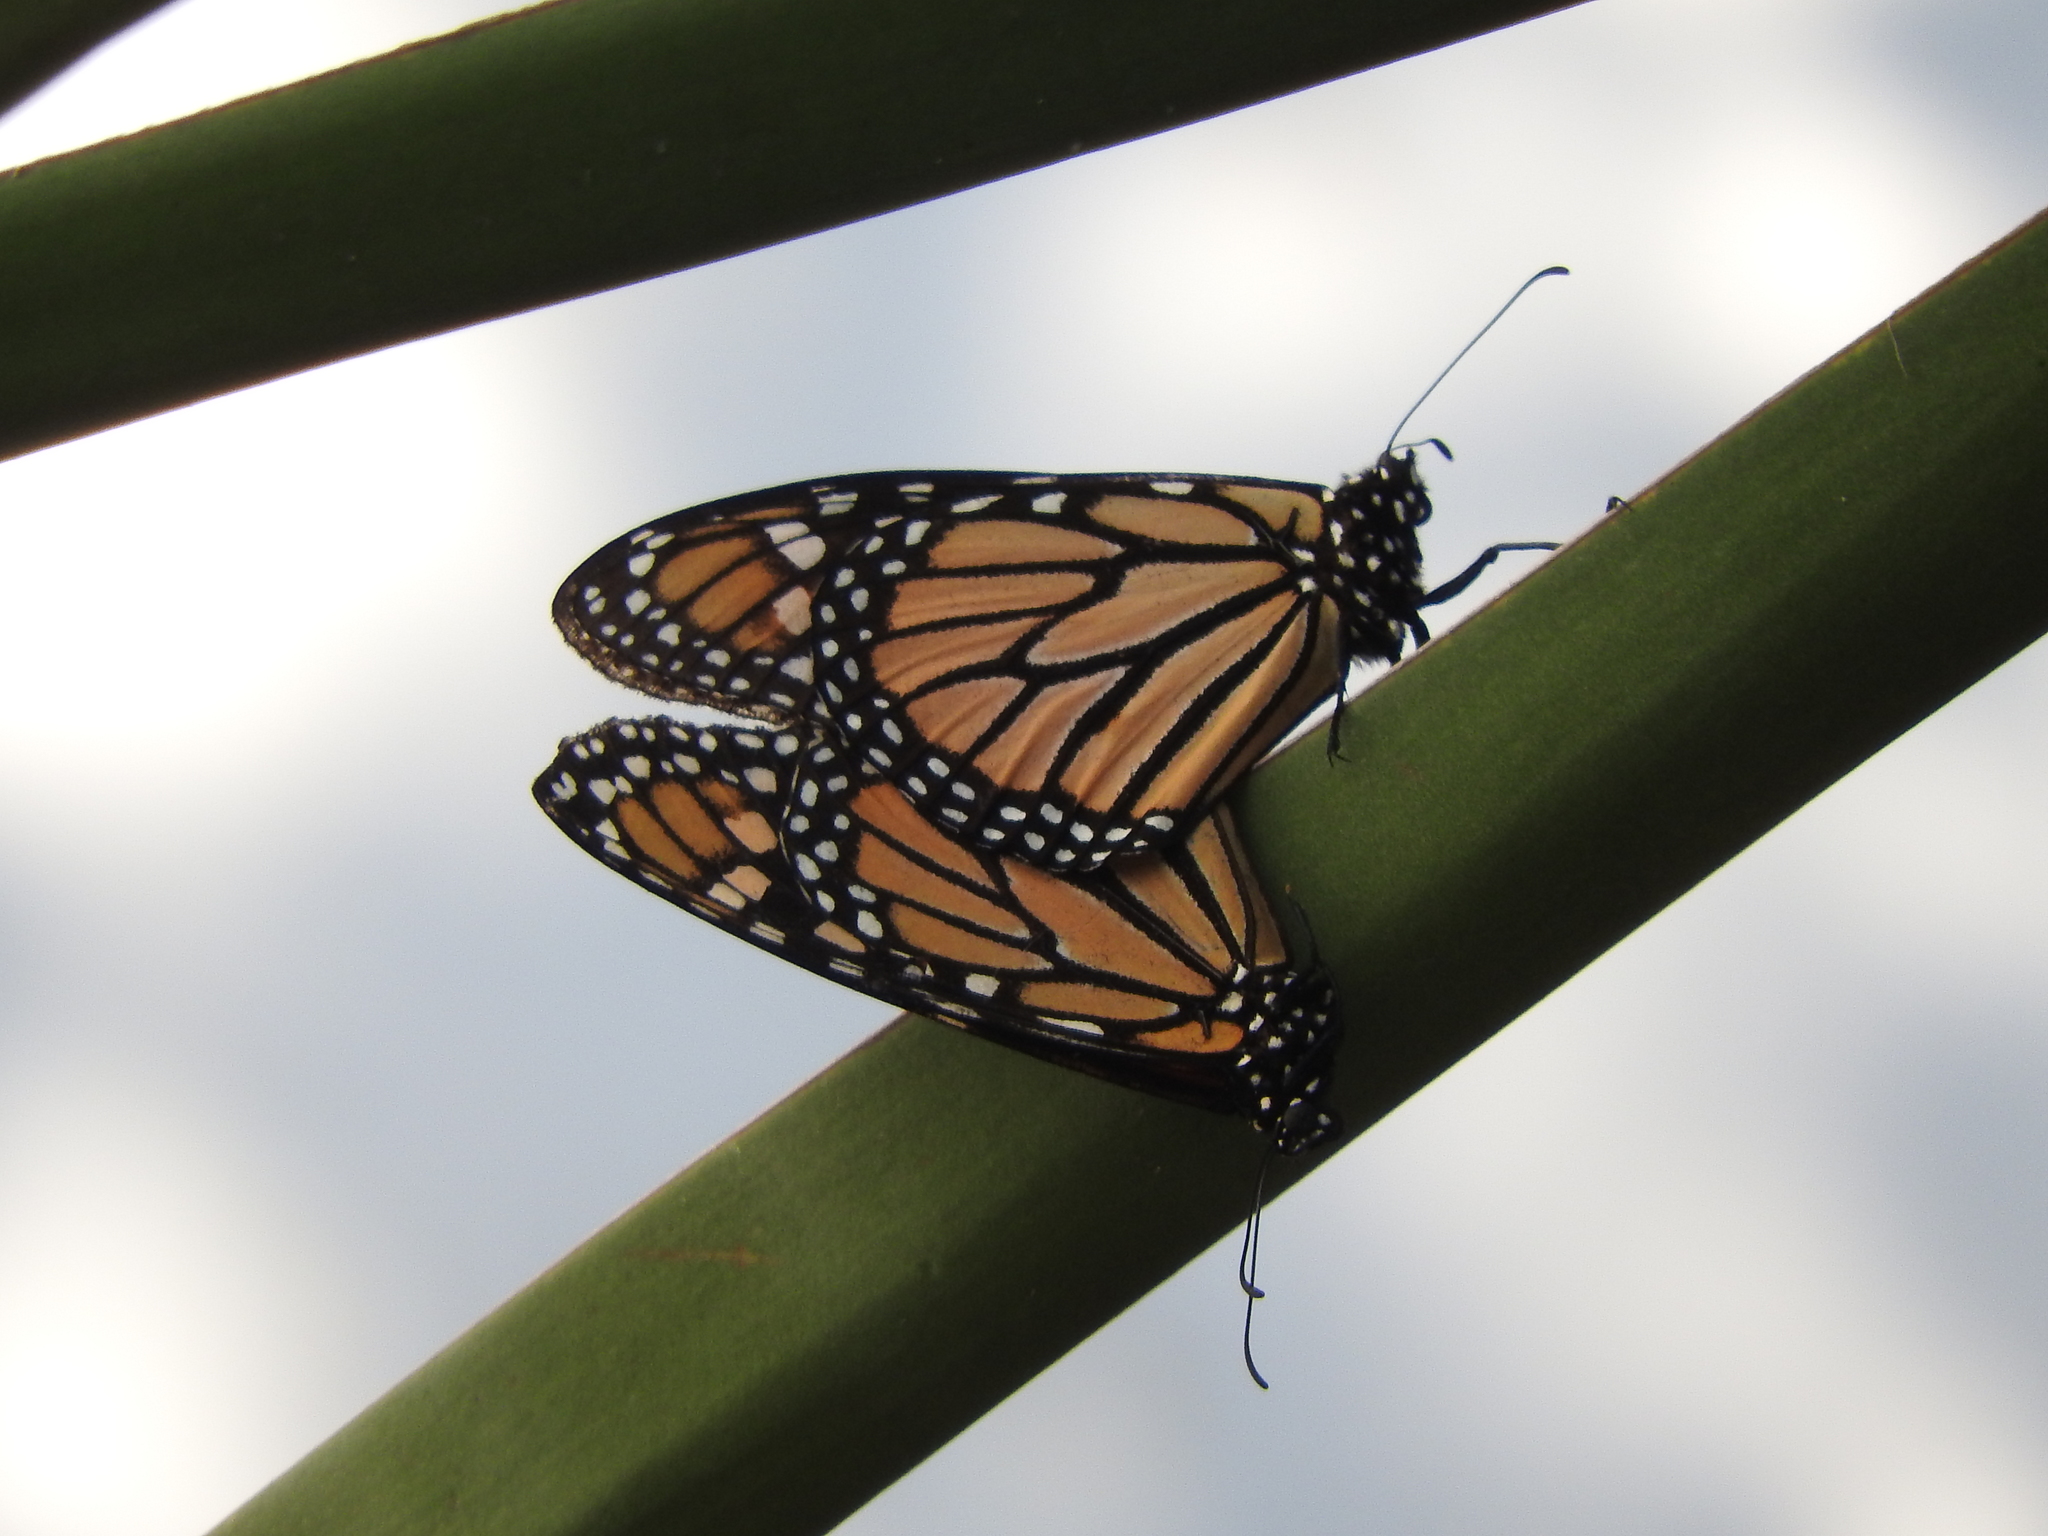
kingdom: Animalia
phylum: Arthropoda
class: Insecta
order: Lepidoptera
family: Nymphalidae
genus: Danaus
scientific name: Danaus plexippus
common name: Monarch
